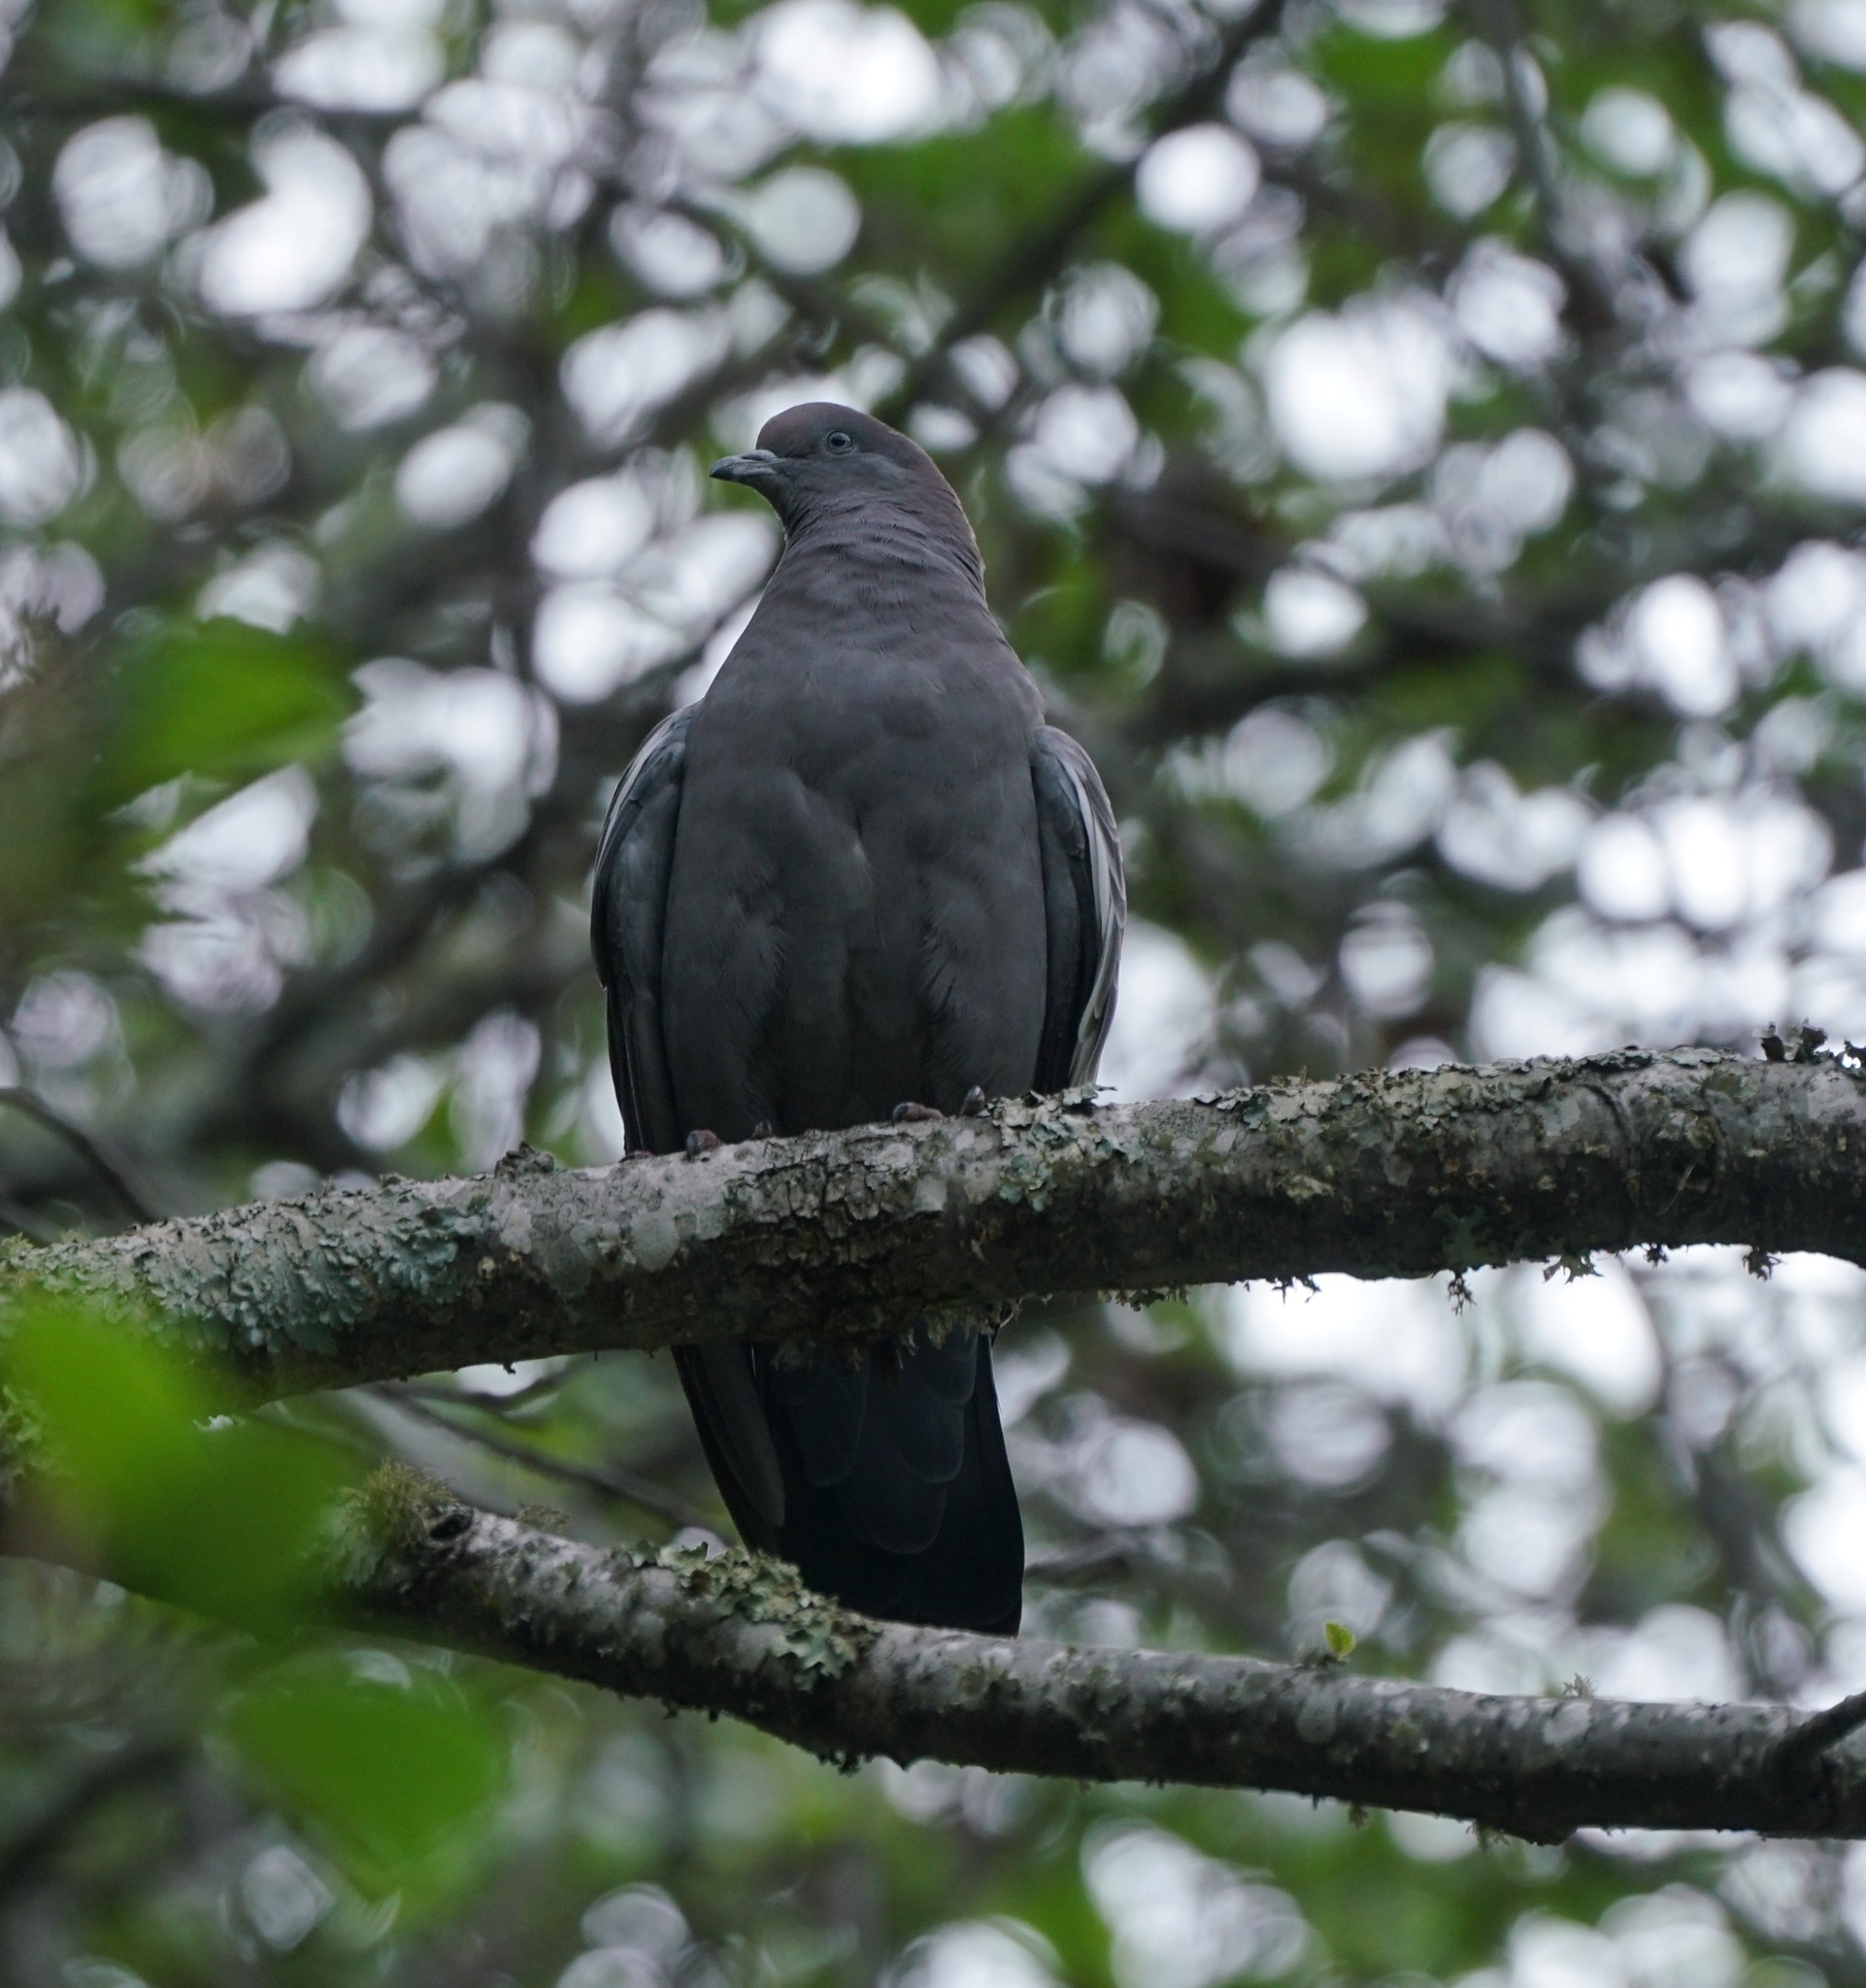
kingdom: Animalia
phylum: Chordata
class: Aves
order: Columbiformes
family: Columbidae
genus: Patagioenas
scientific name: Patagioenas maculosa
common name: Spot-winged pigeon
